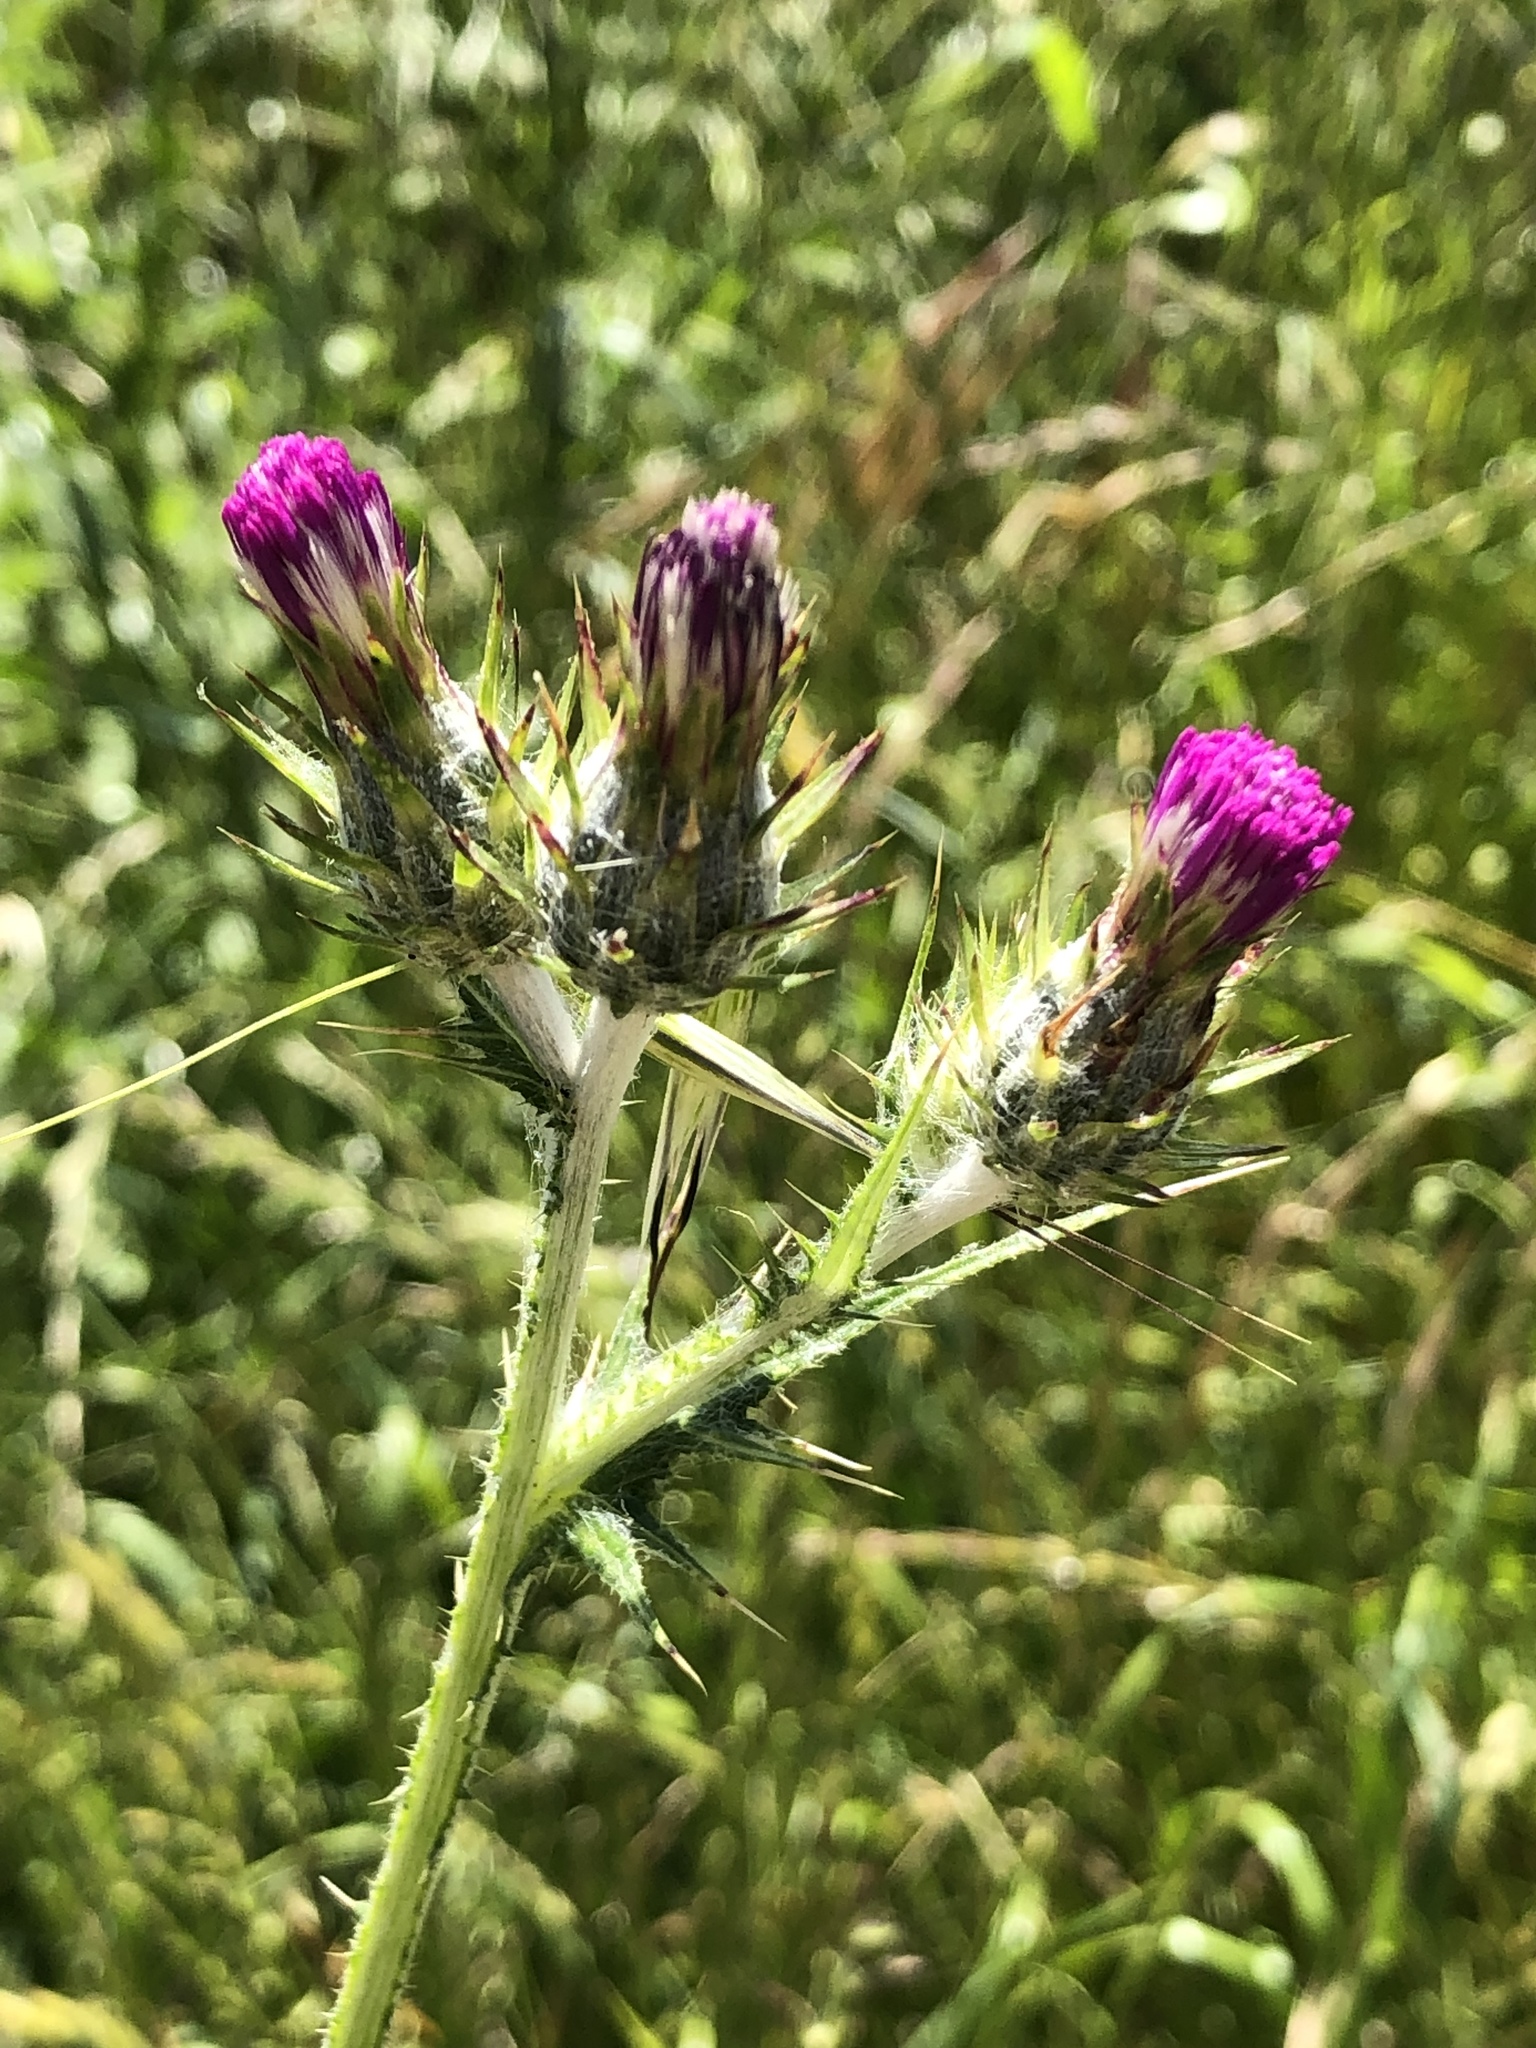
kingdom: Plantae
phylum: Tracheophyta
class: Magnoliopsida
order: Asterales
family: Asteraceae
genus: Carduus
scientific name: Carduus pycnocephalus
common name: Plymouth thistle
